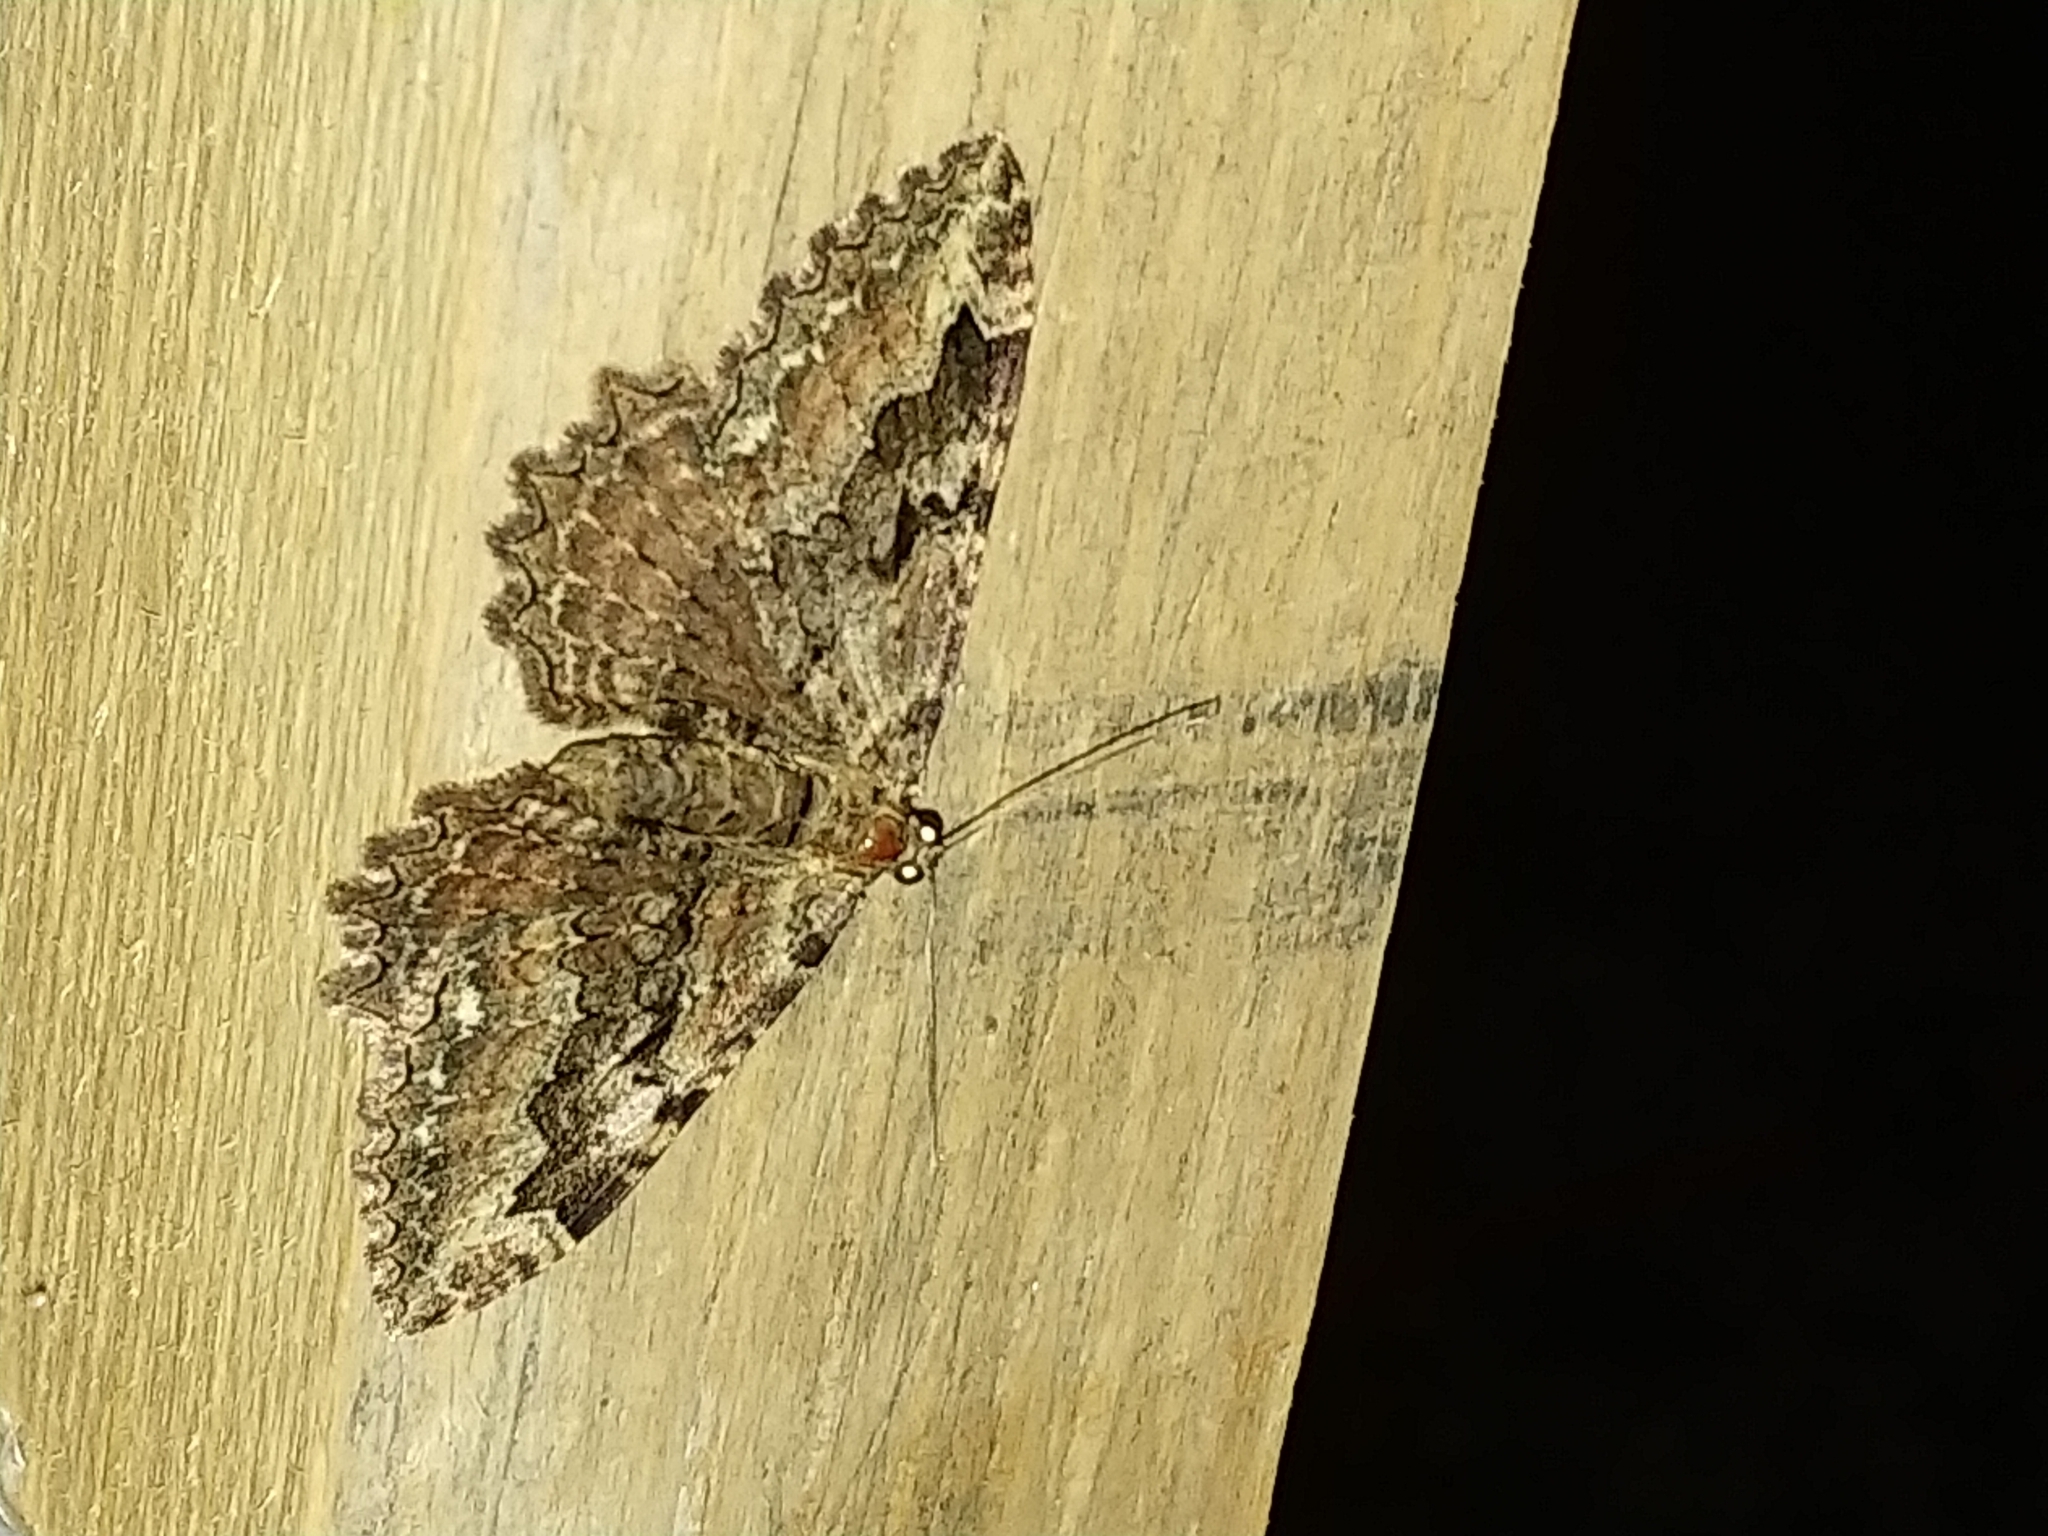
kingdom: Animalia
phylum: Arthropoda
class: Insecta
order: Lepidoptera
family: Geometridae
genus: Rheumaptera
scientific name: Rheumaptera
